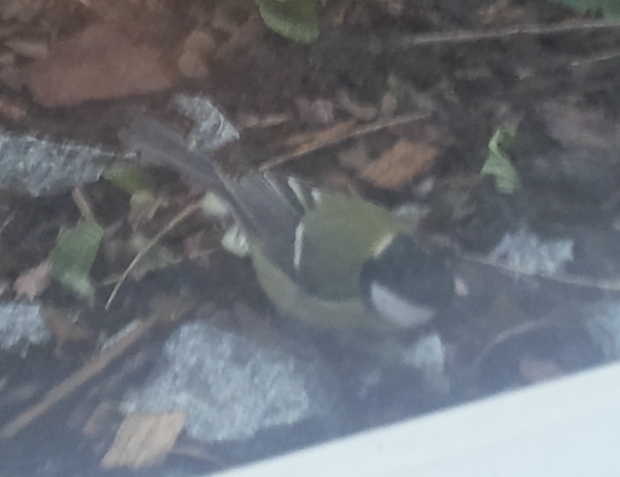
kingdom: Animalia
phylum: Chordata
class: Aves
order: Passeriformes
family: Paridae
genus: Parus
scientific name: Parus major
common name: Great tit
